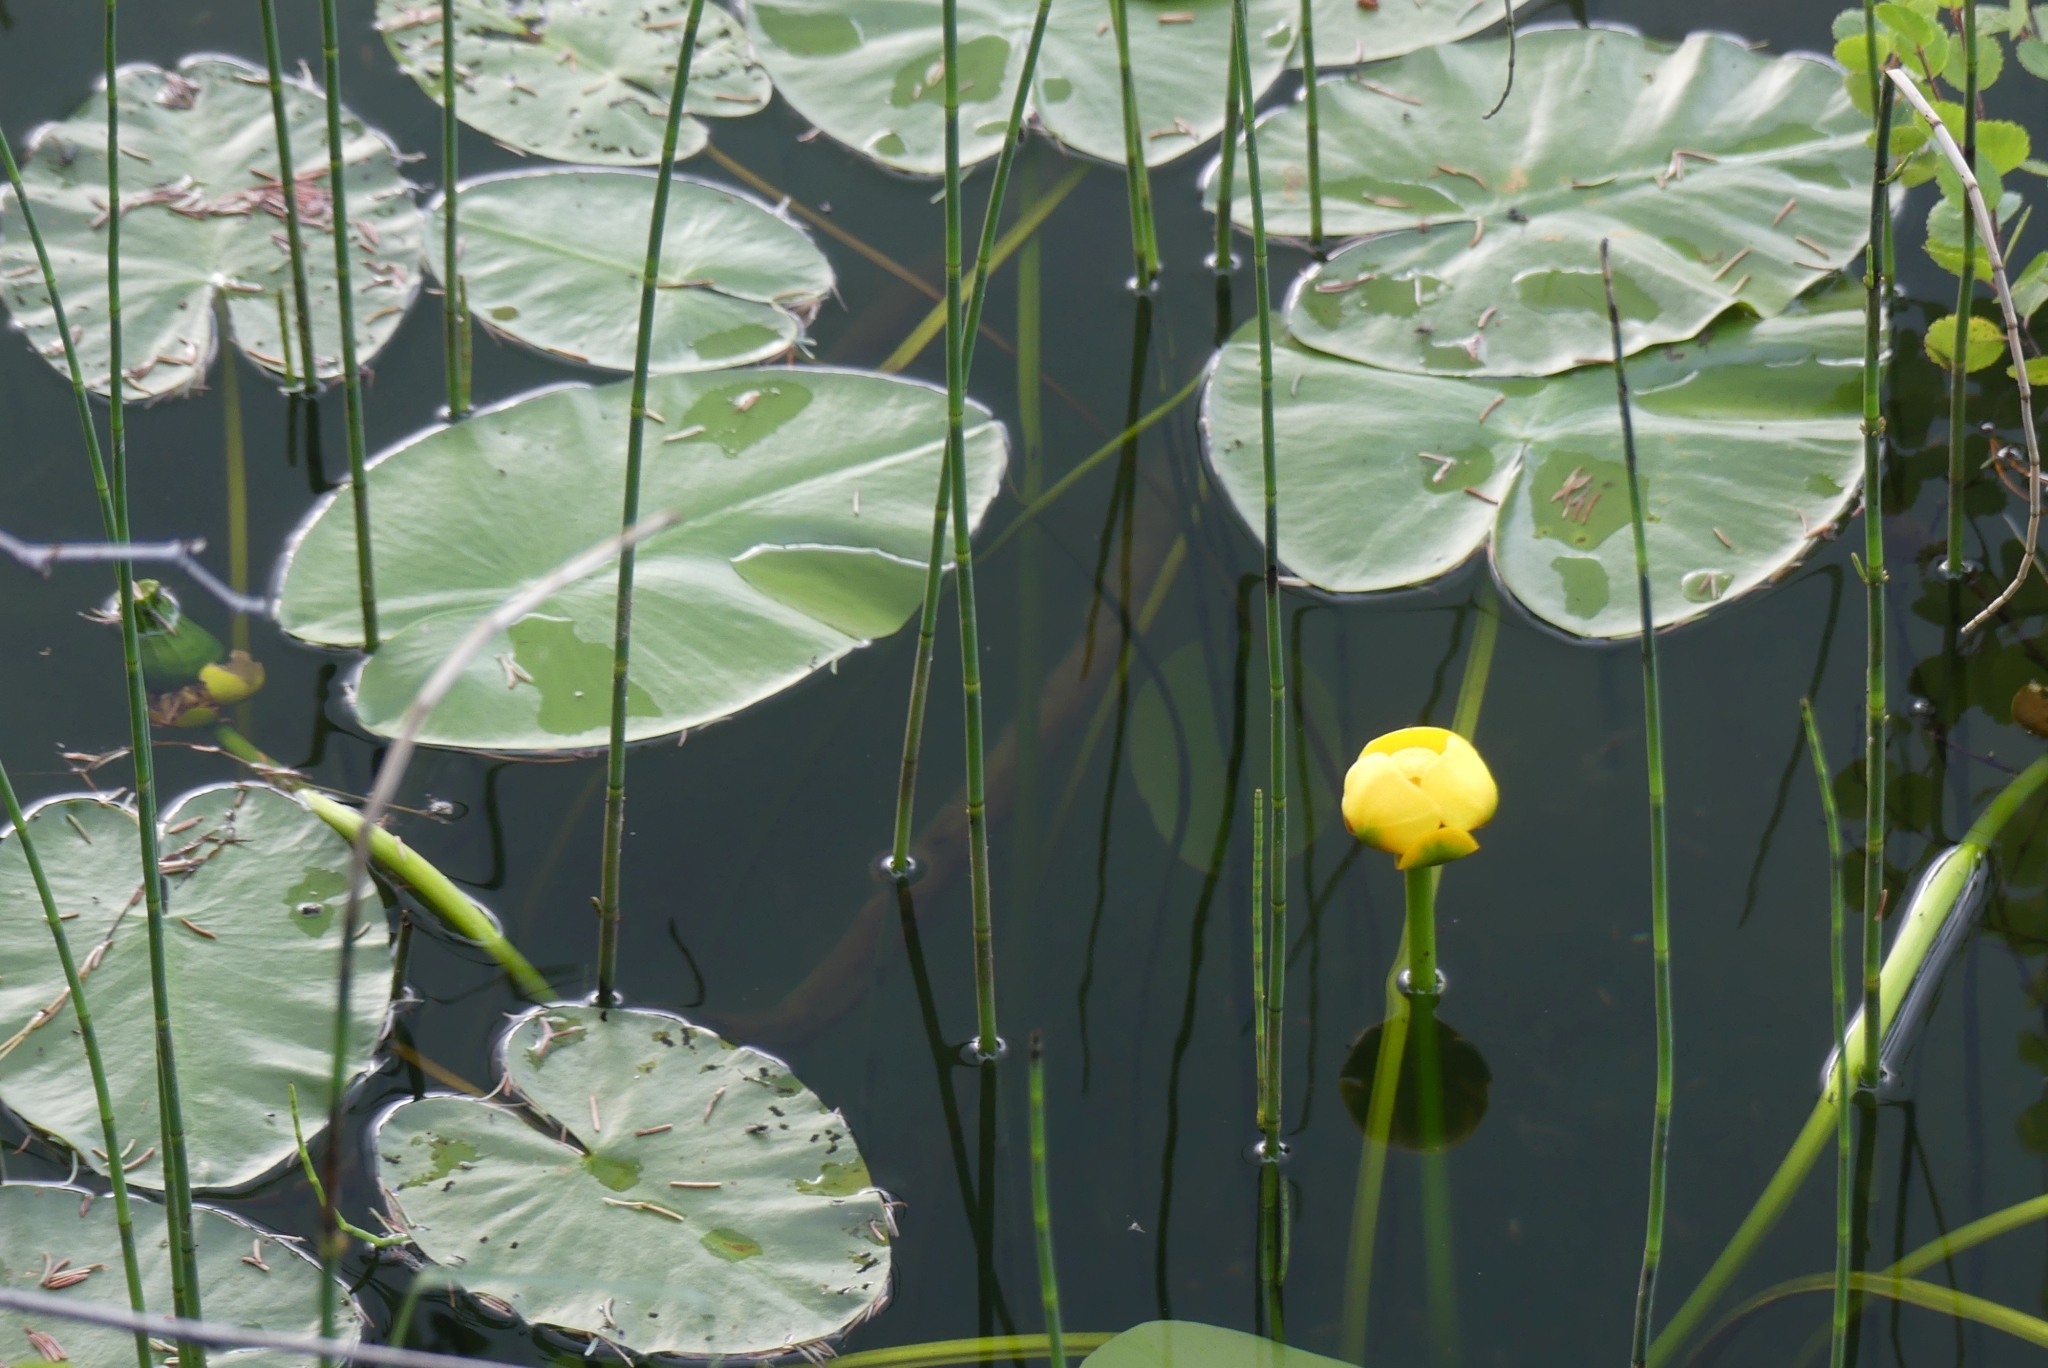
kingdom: Plantae
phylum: Tracheophyta
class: Magnoliopsida
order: Nymphaeales
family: Nymphaeaceae
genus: Nuphar
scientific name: Nuphar variegata
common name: Beaver-root
